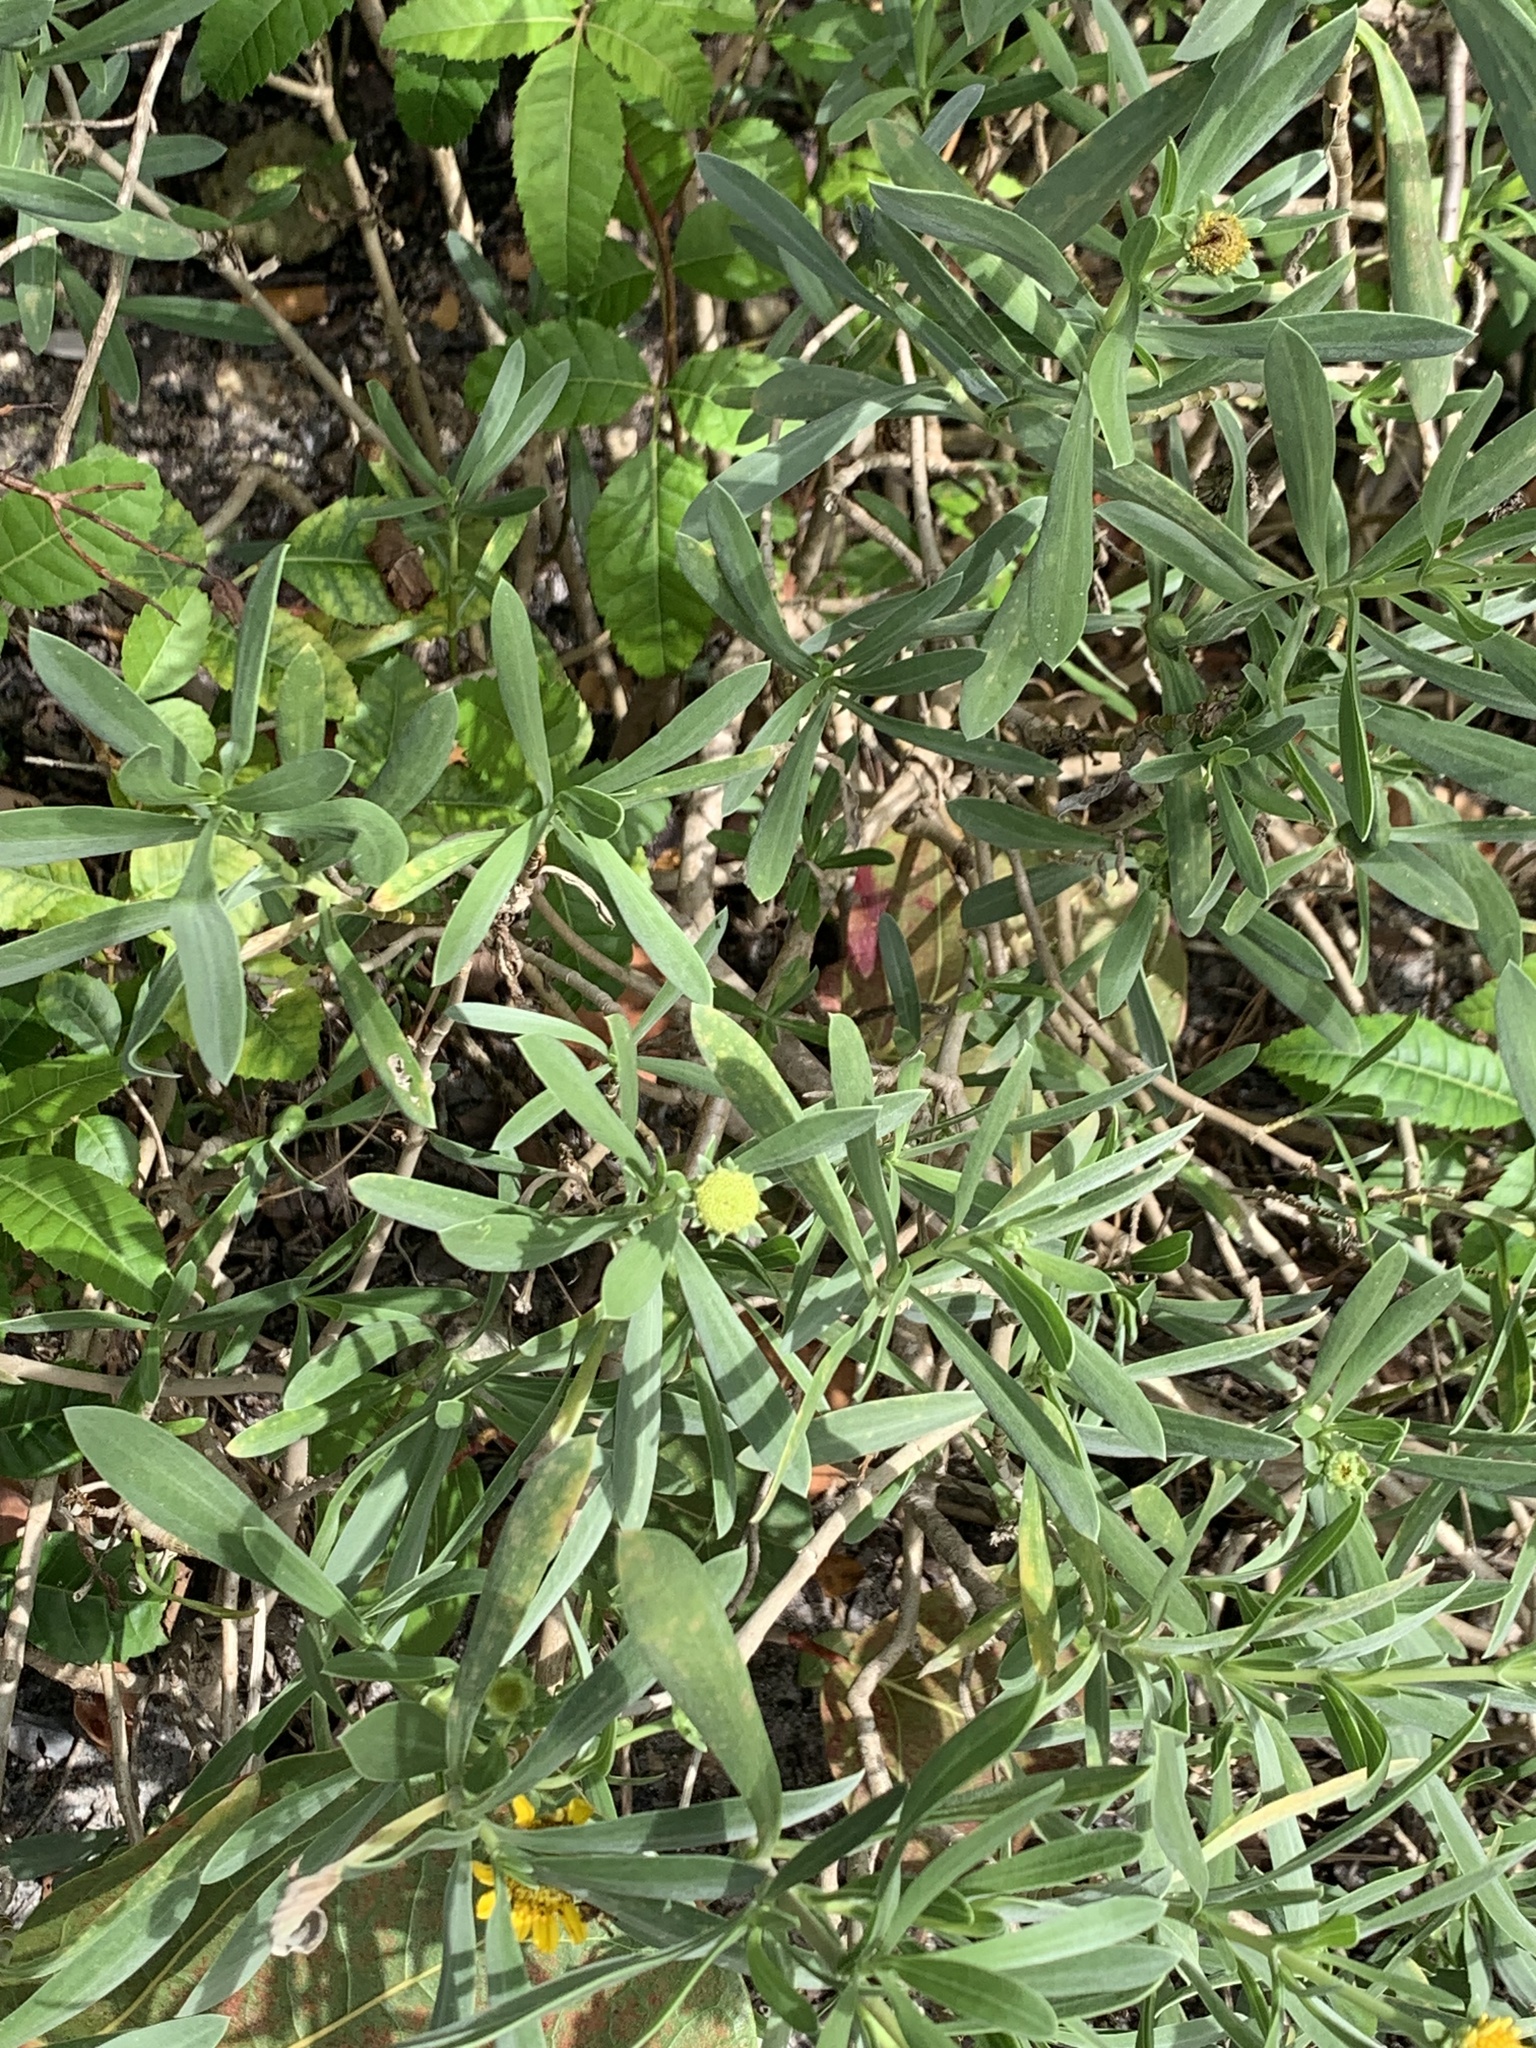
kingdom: Plantae
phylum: Tracheophyta
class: Magnoliopsida
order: Asterales
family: Asteraceae
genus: Borrichia
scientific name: Borrichia frutescens
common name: Sea oxeye
